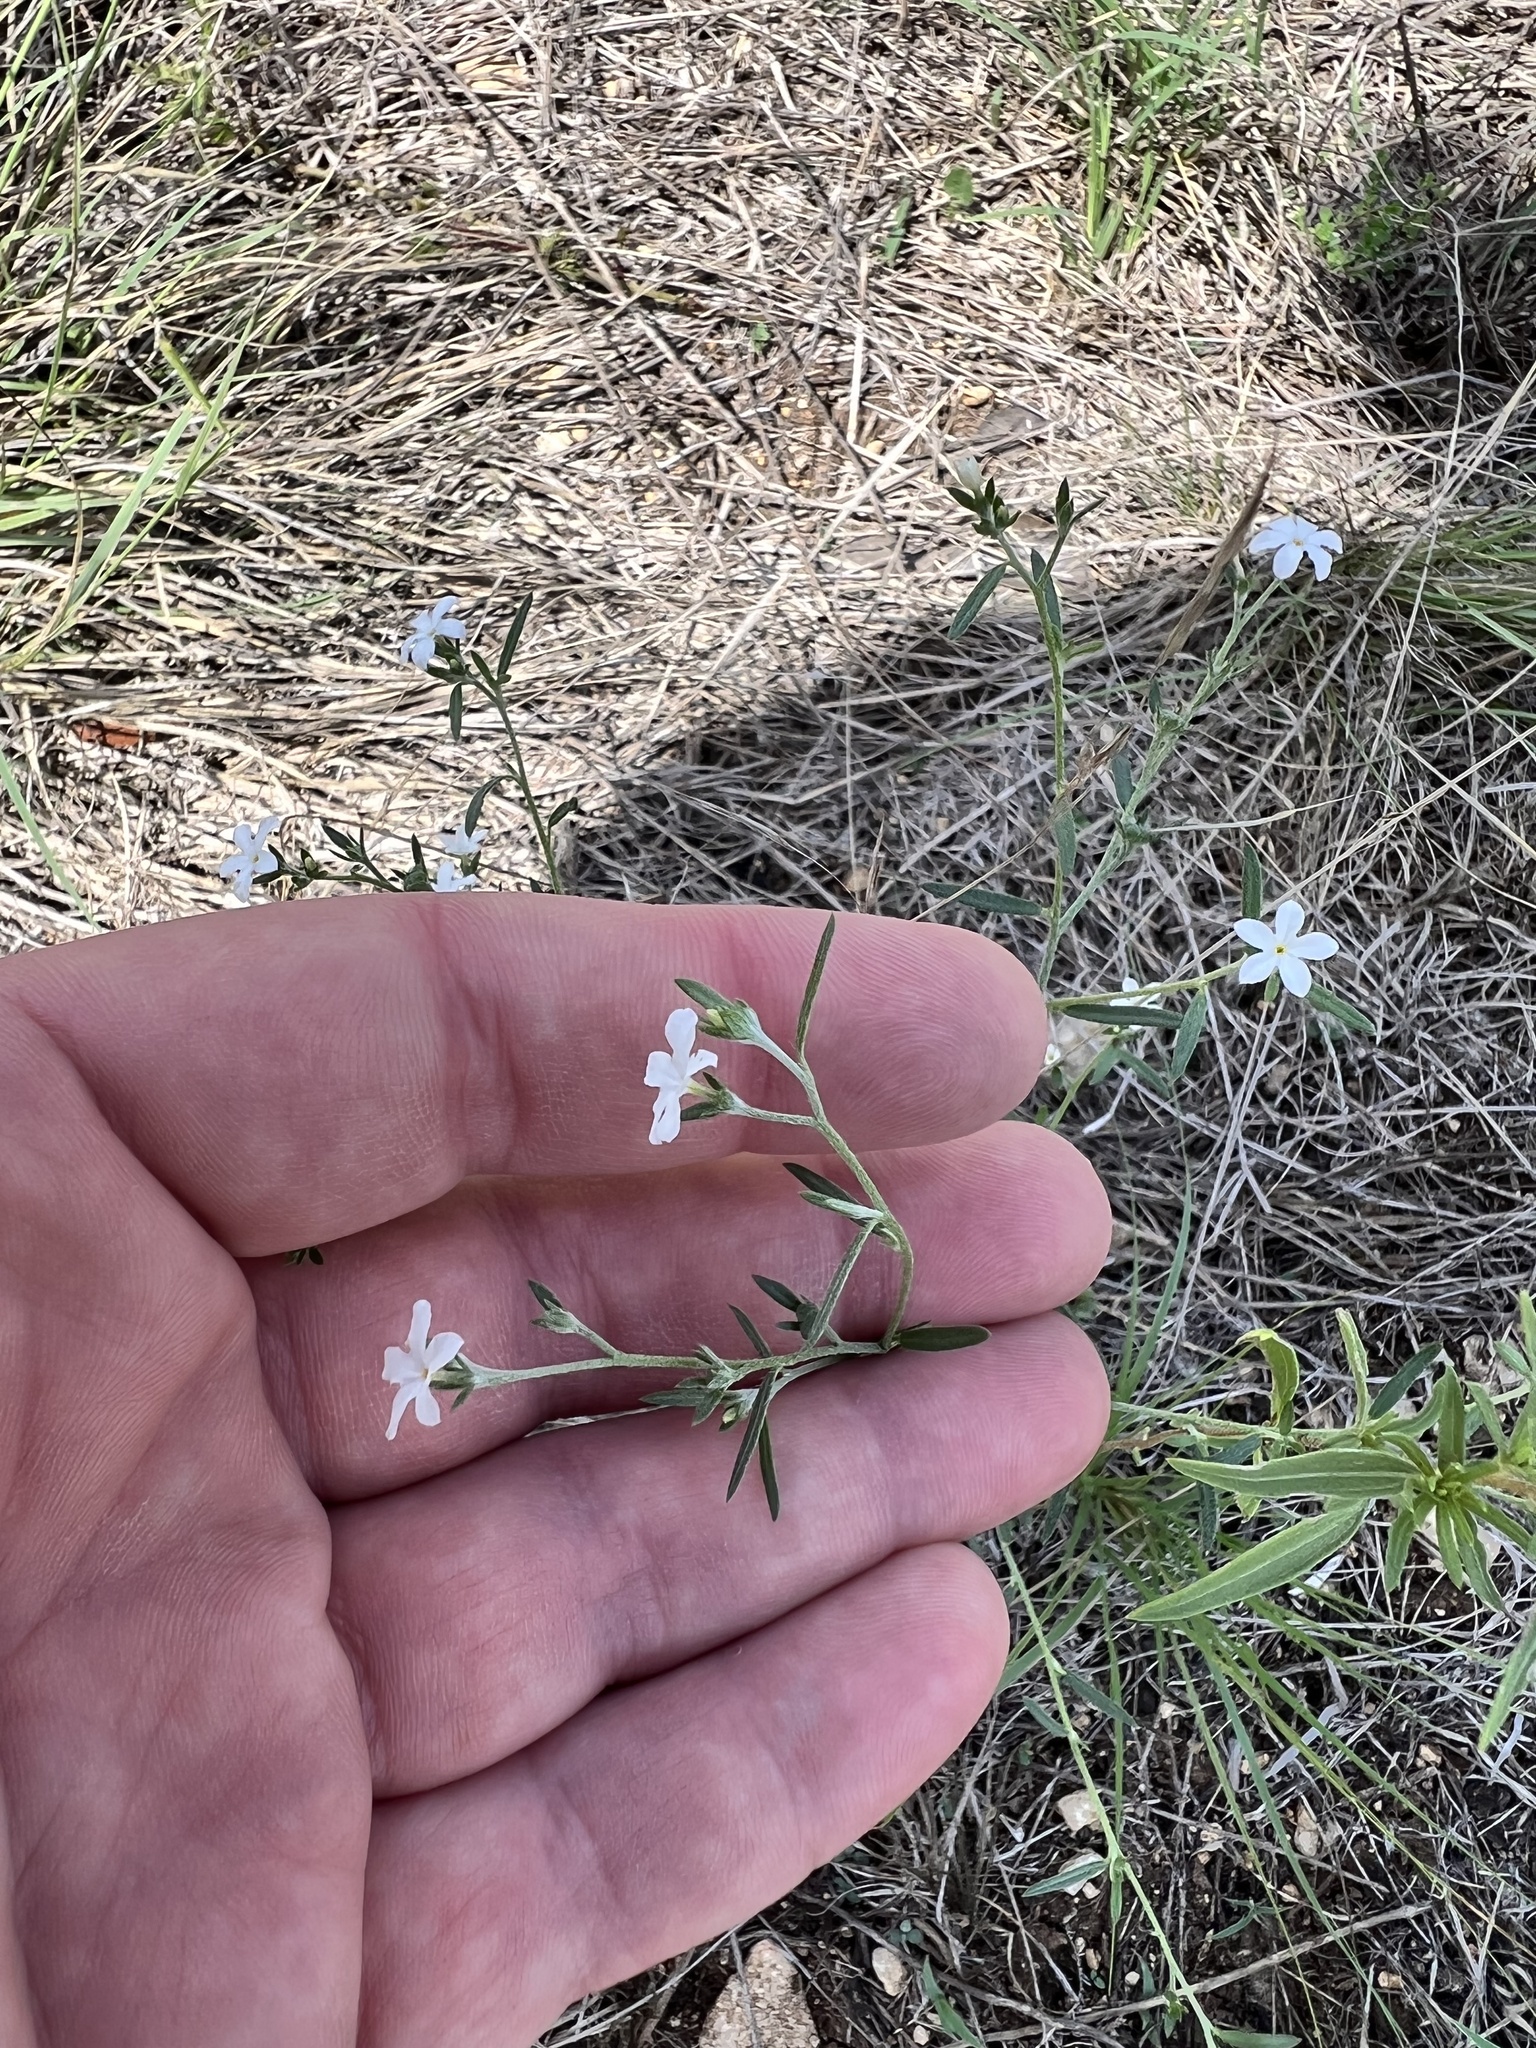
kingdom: Plantae
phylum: Tracheophyta
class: Magnoliopsida
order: Boraginales
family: Heliotropiaceae
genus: Euploca
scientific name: Euploca tenella
